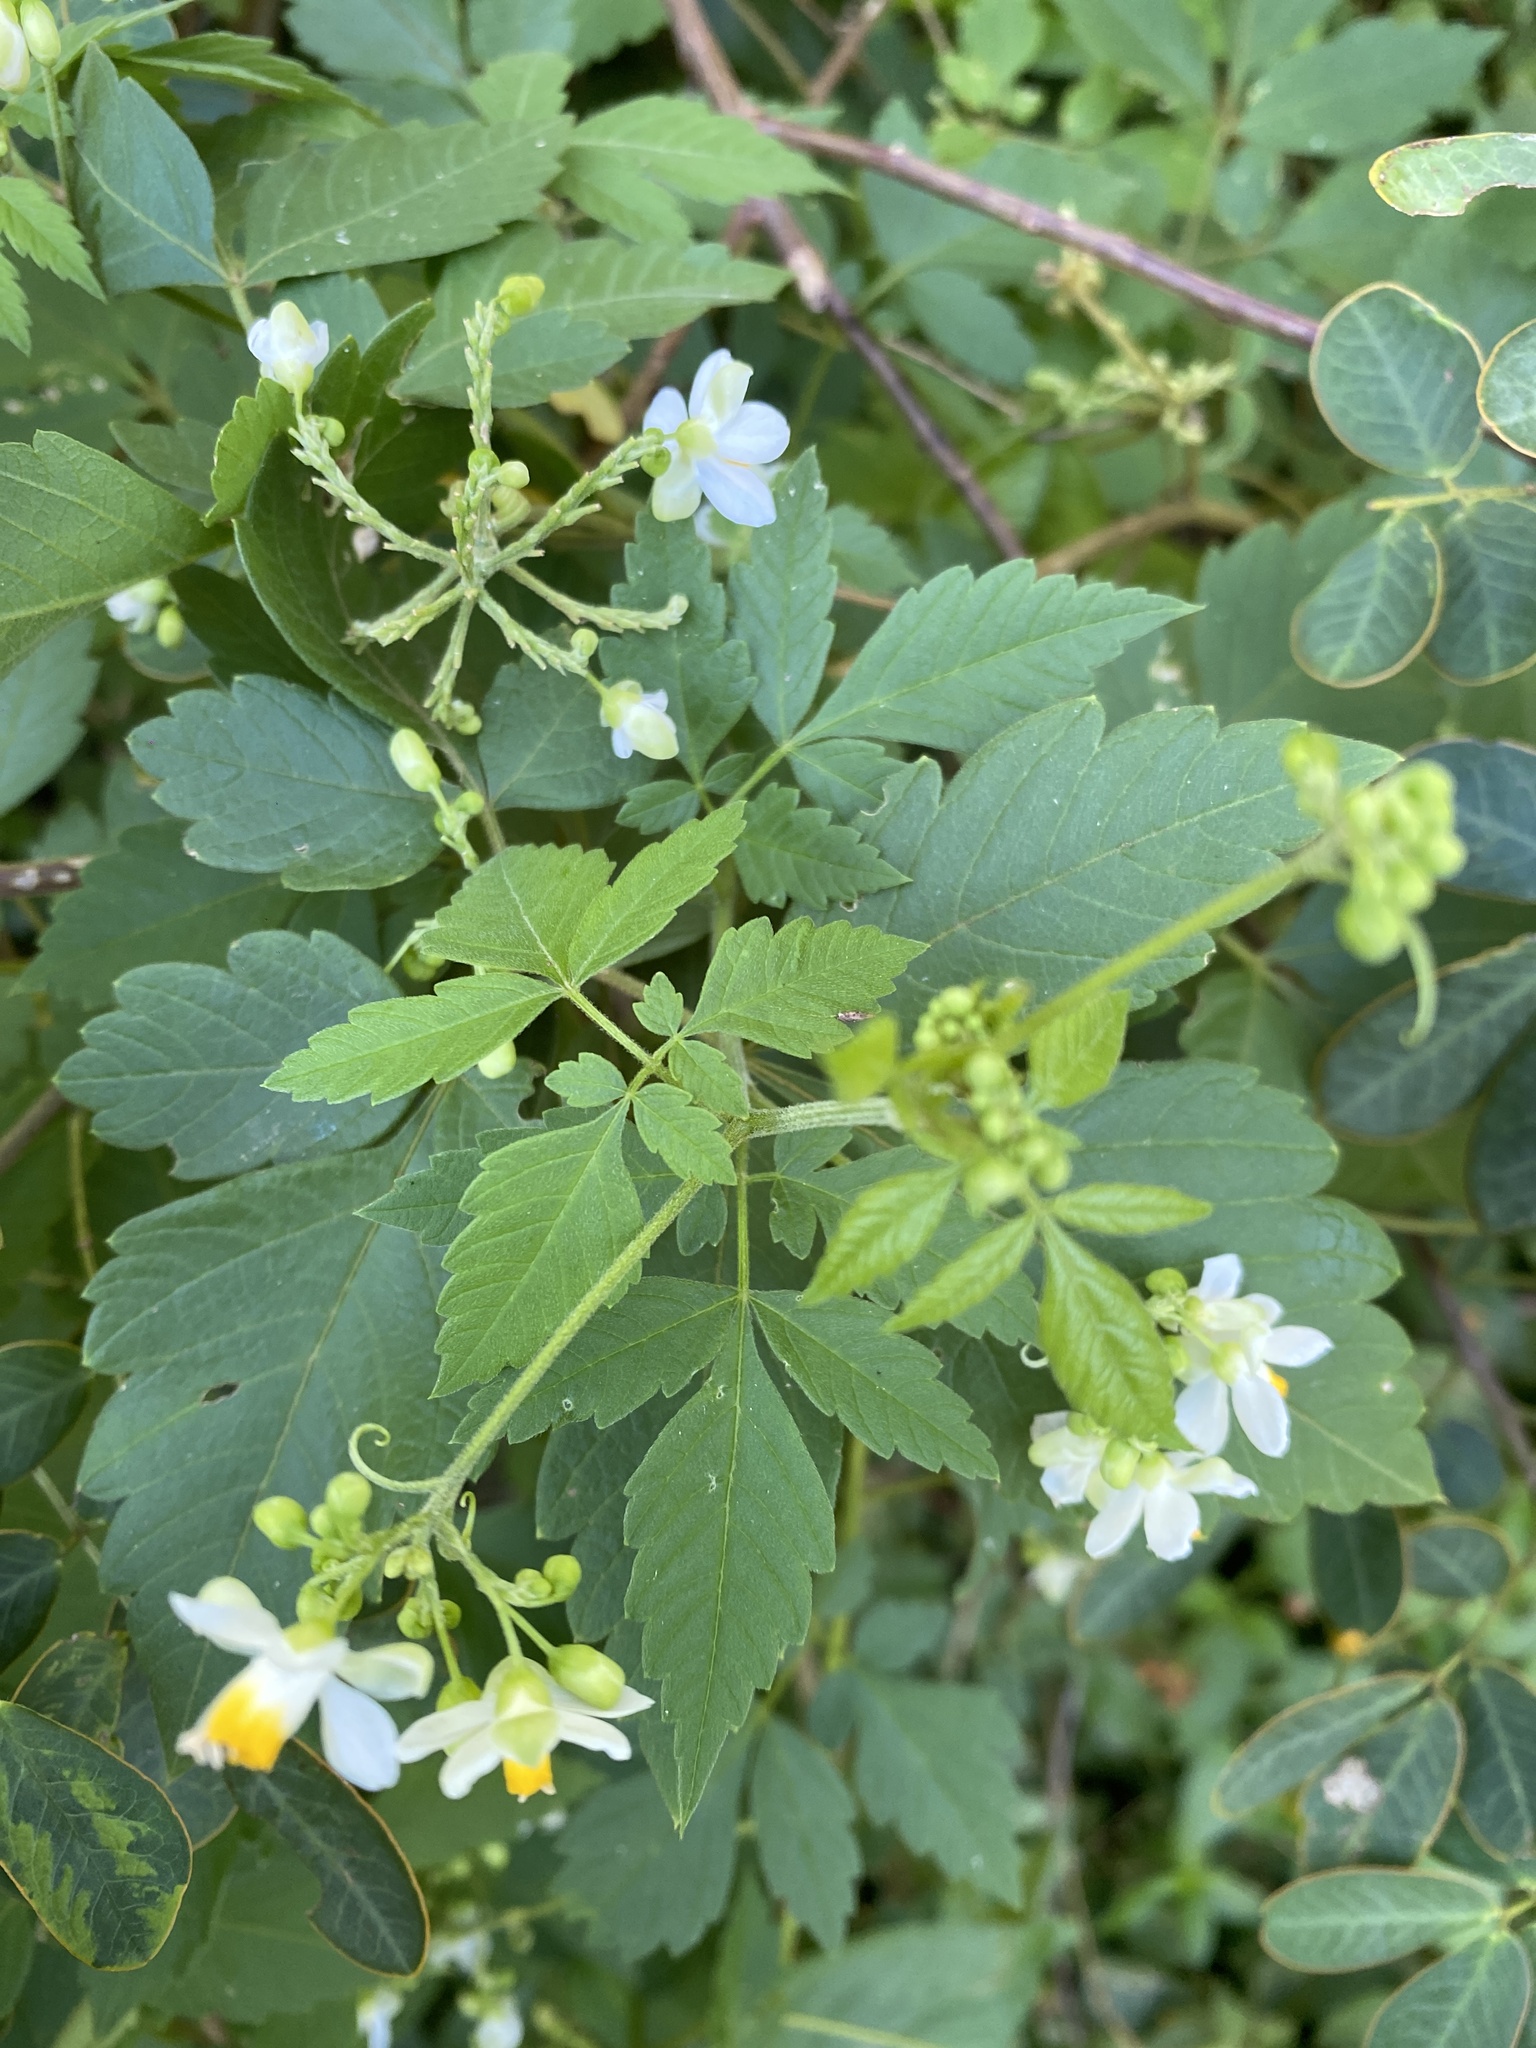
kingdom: Plantae
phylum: Tracheophyta
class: Magnoliopsida
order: Sapindales
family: Sapindaceae
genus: Cardiospermum
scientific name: Cardiospermum grandiflorum
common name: Balloon vine
